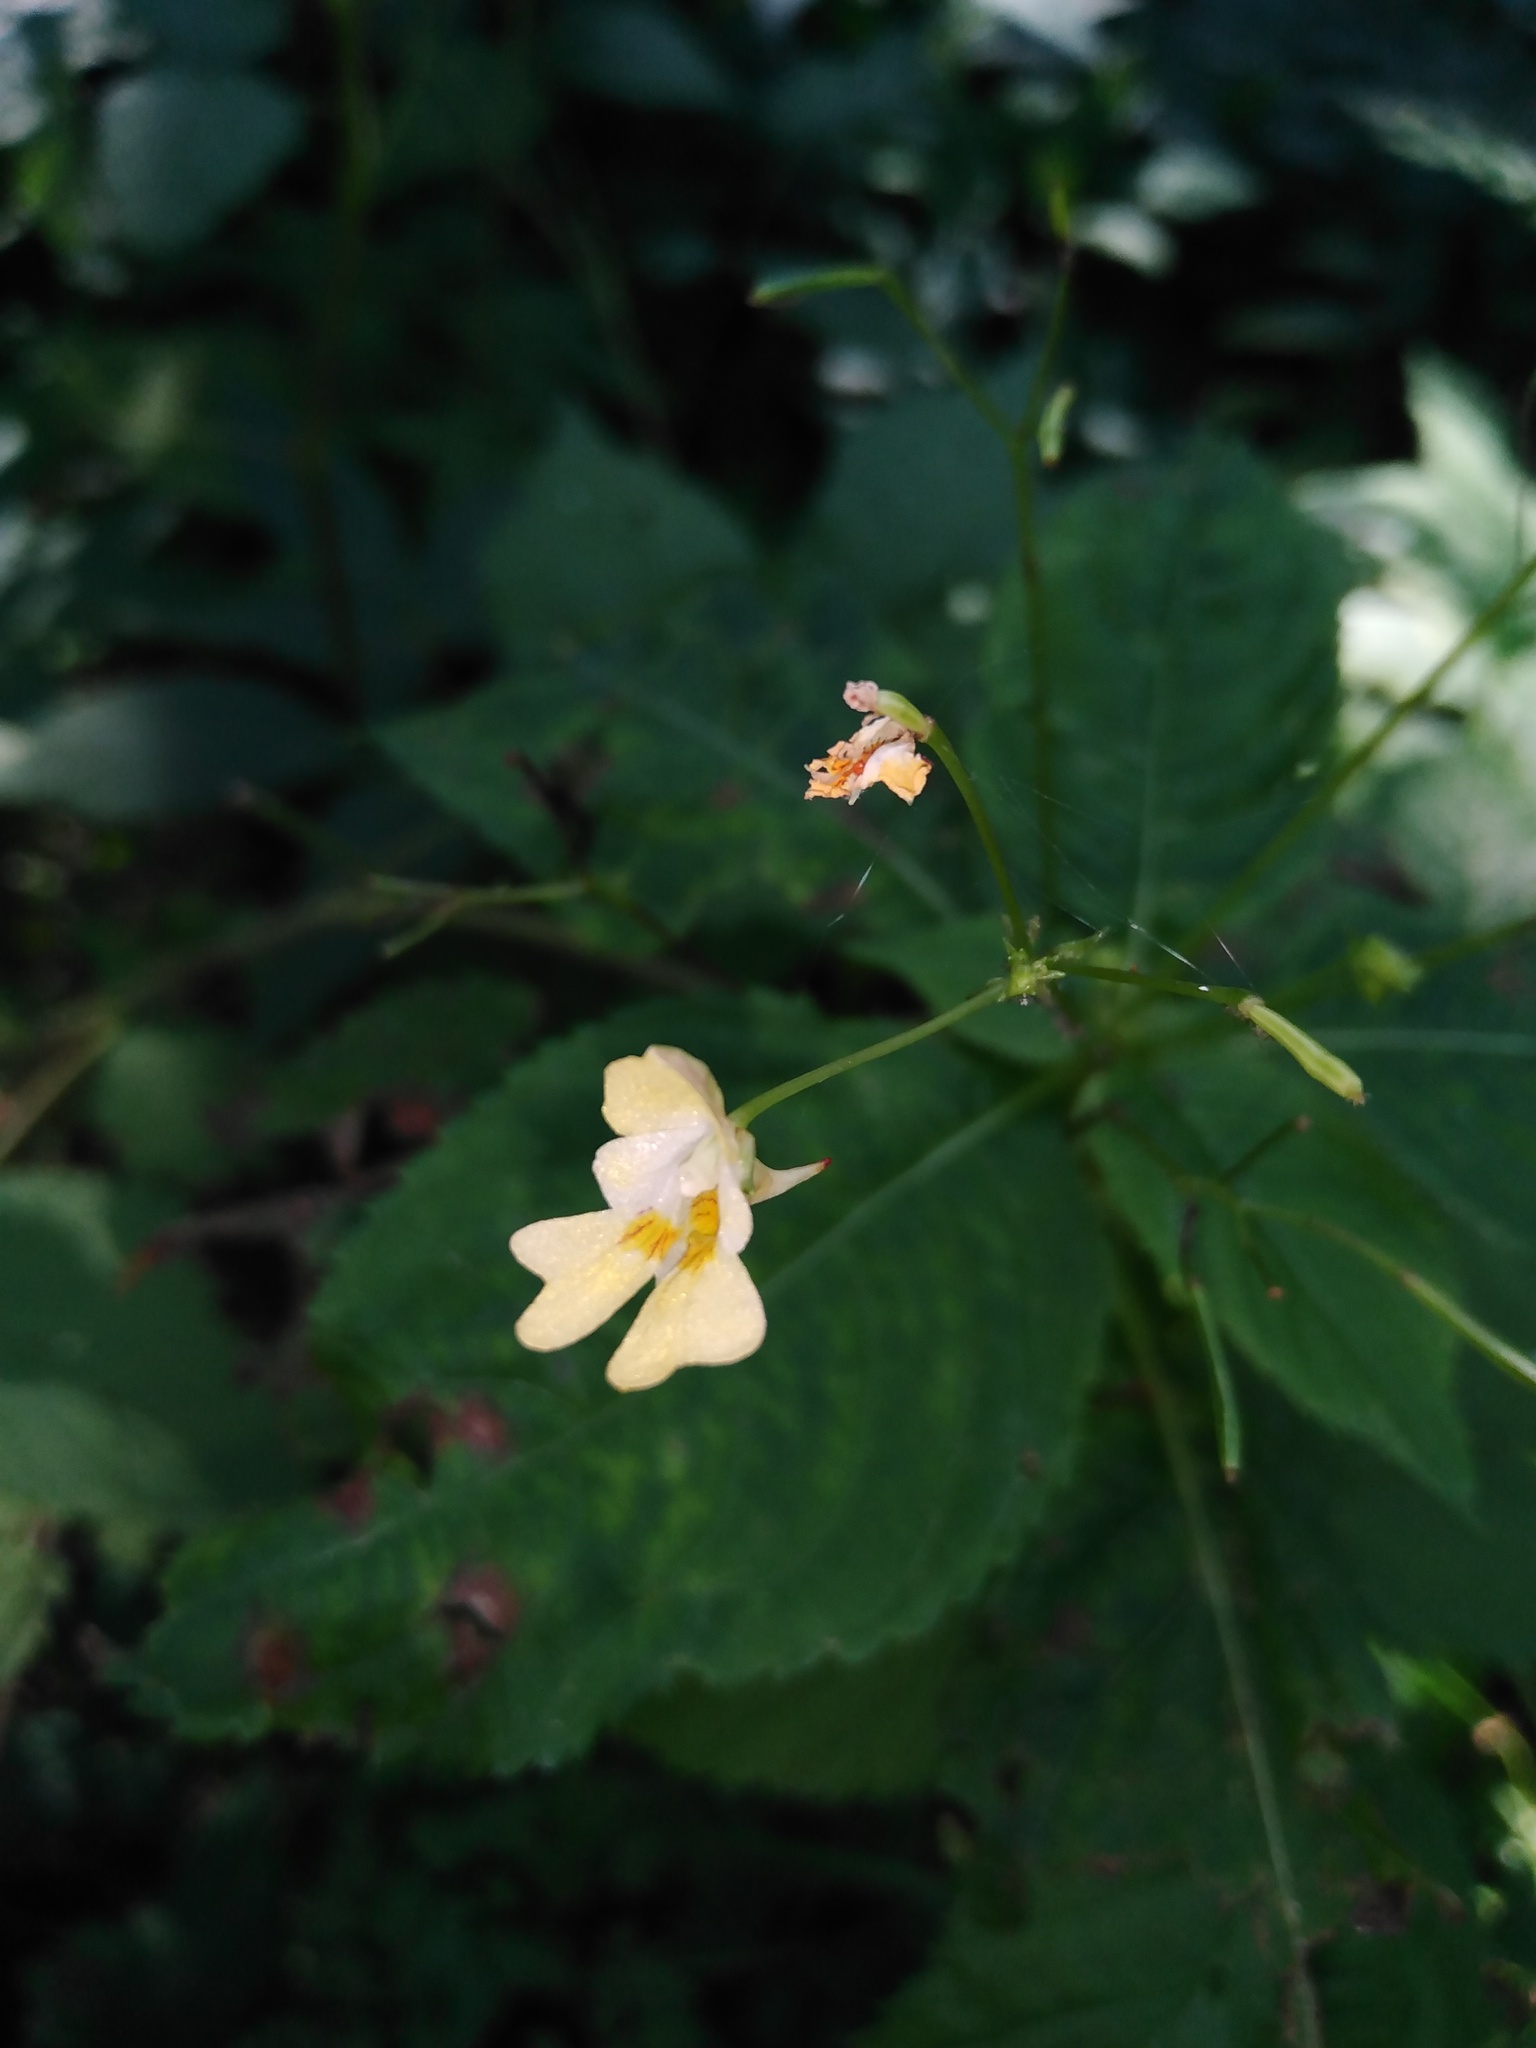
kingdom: Plantae
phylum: Tracheophyta
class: Magnoliopsida
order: Ericales
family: Balsaminaceae
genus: Impatiens
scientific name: Impatiens parviflora
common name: Small balsam
